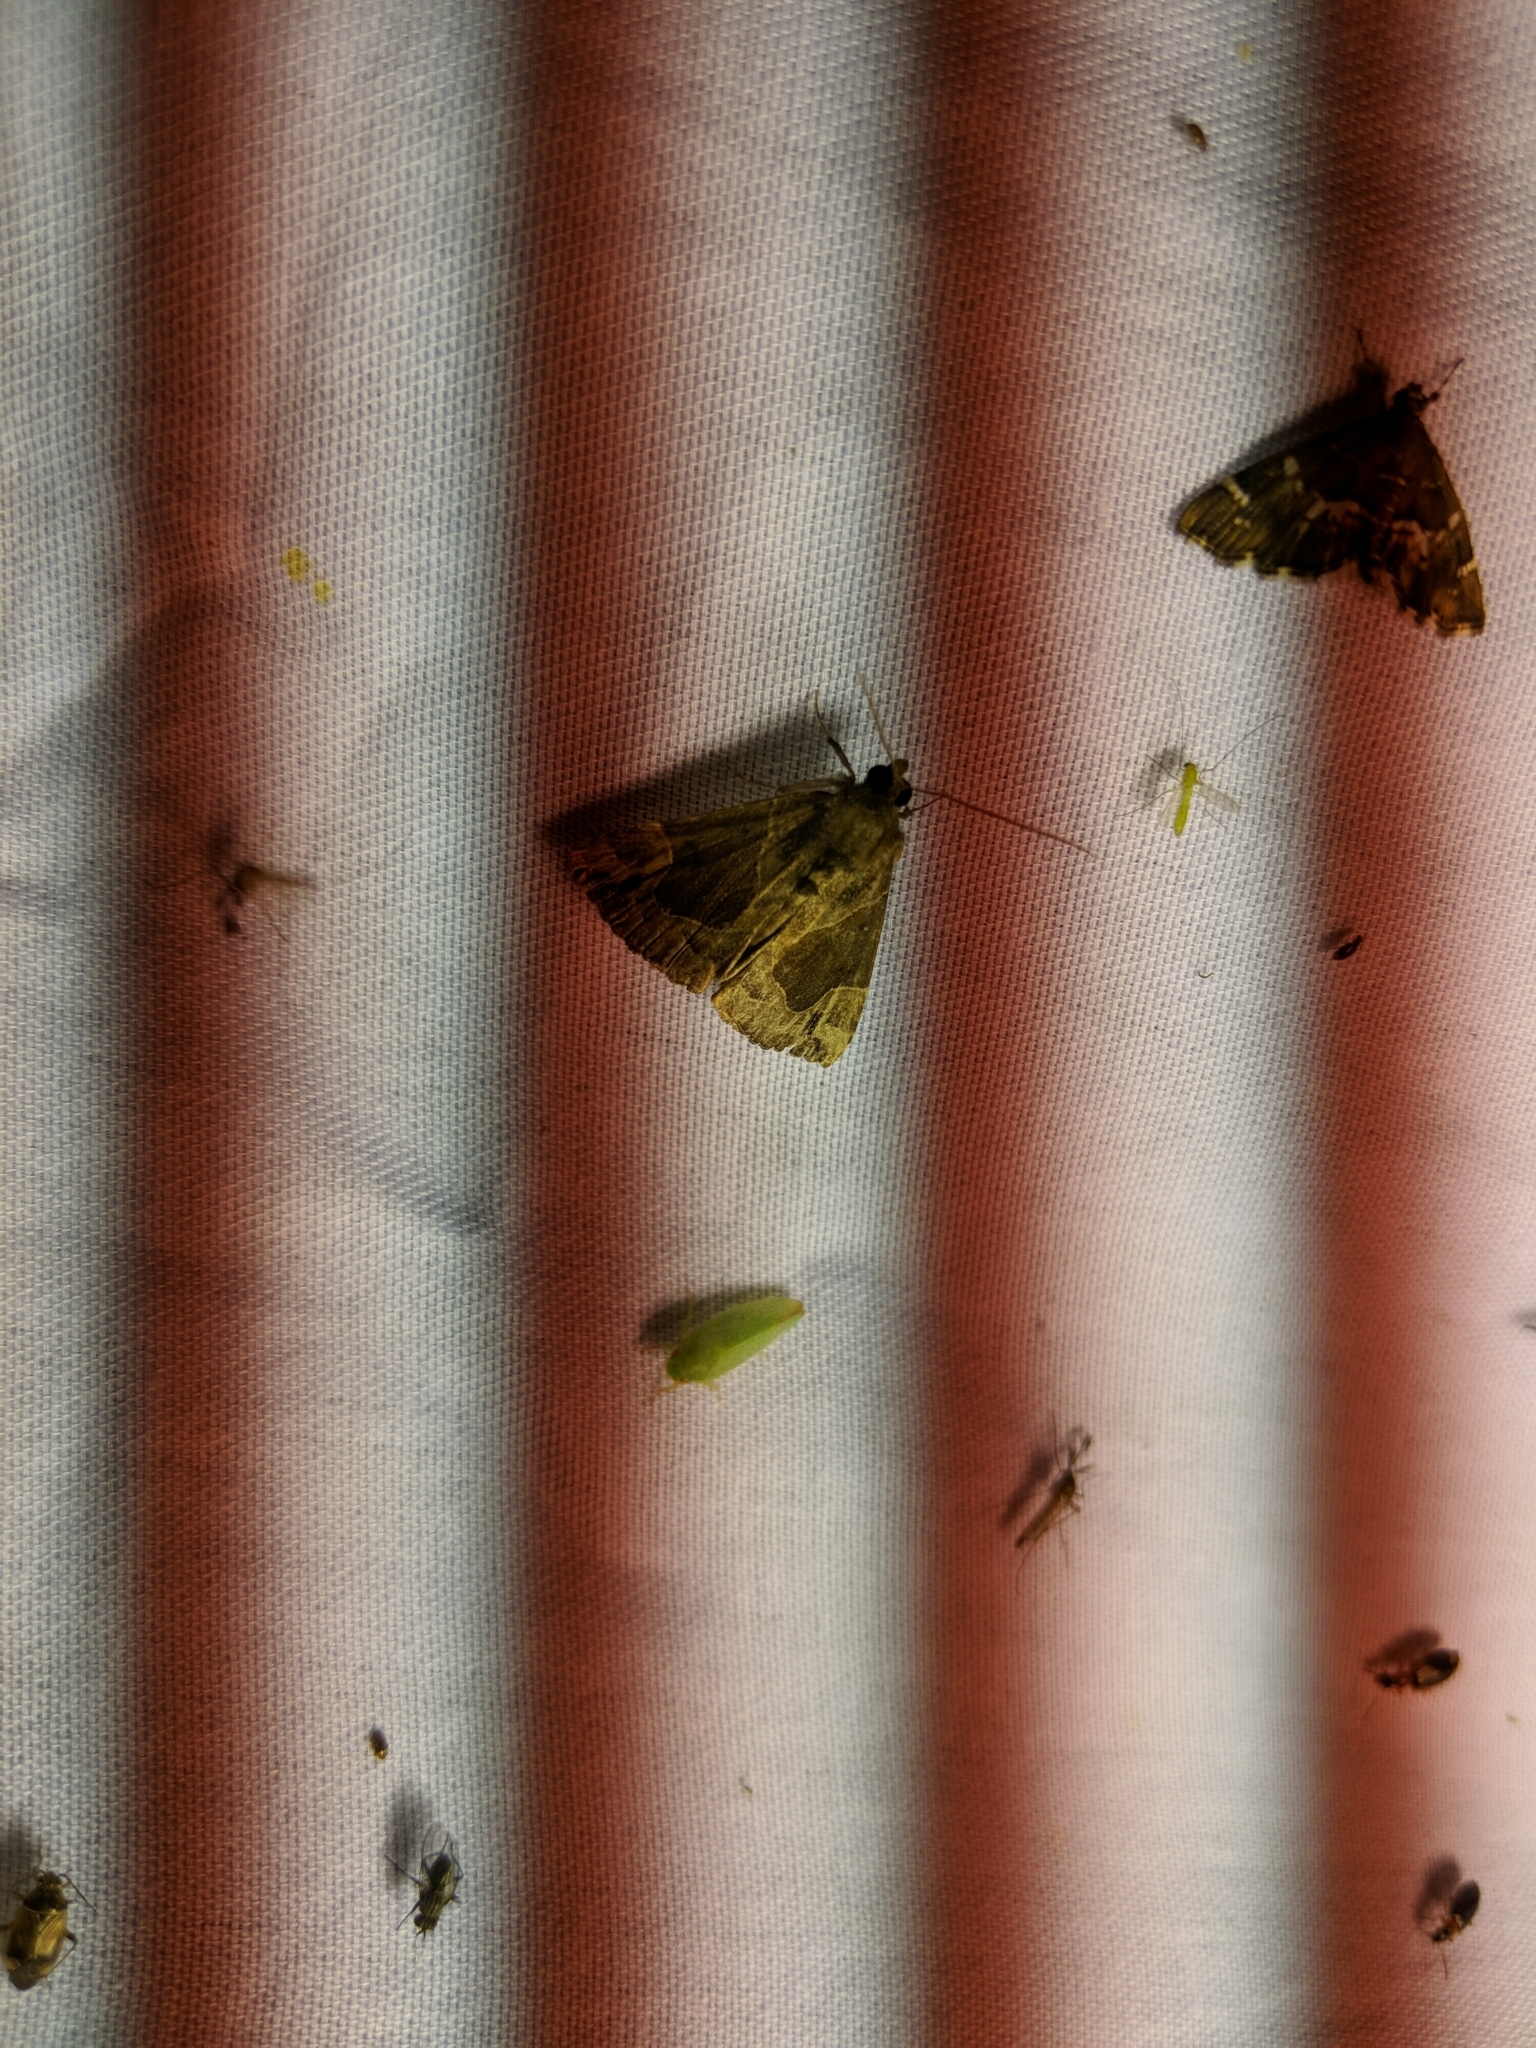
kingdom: Animalia
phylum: Arthropoda
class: Insecta
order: Lepidoptera
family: Erebidae
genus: Hypena
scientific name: Hypena manalis
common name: Flowing-line bomolocha moth
